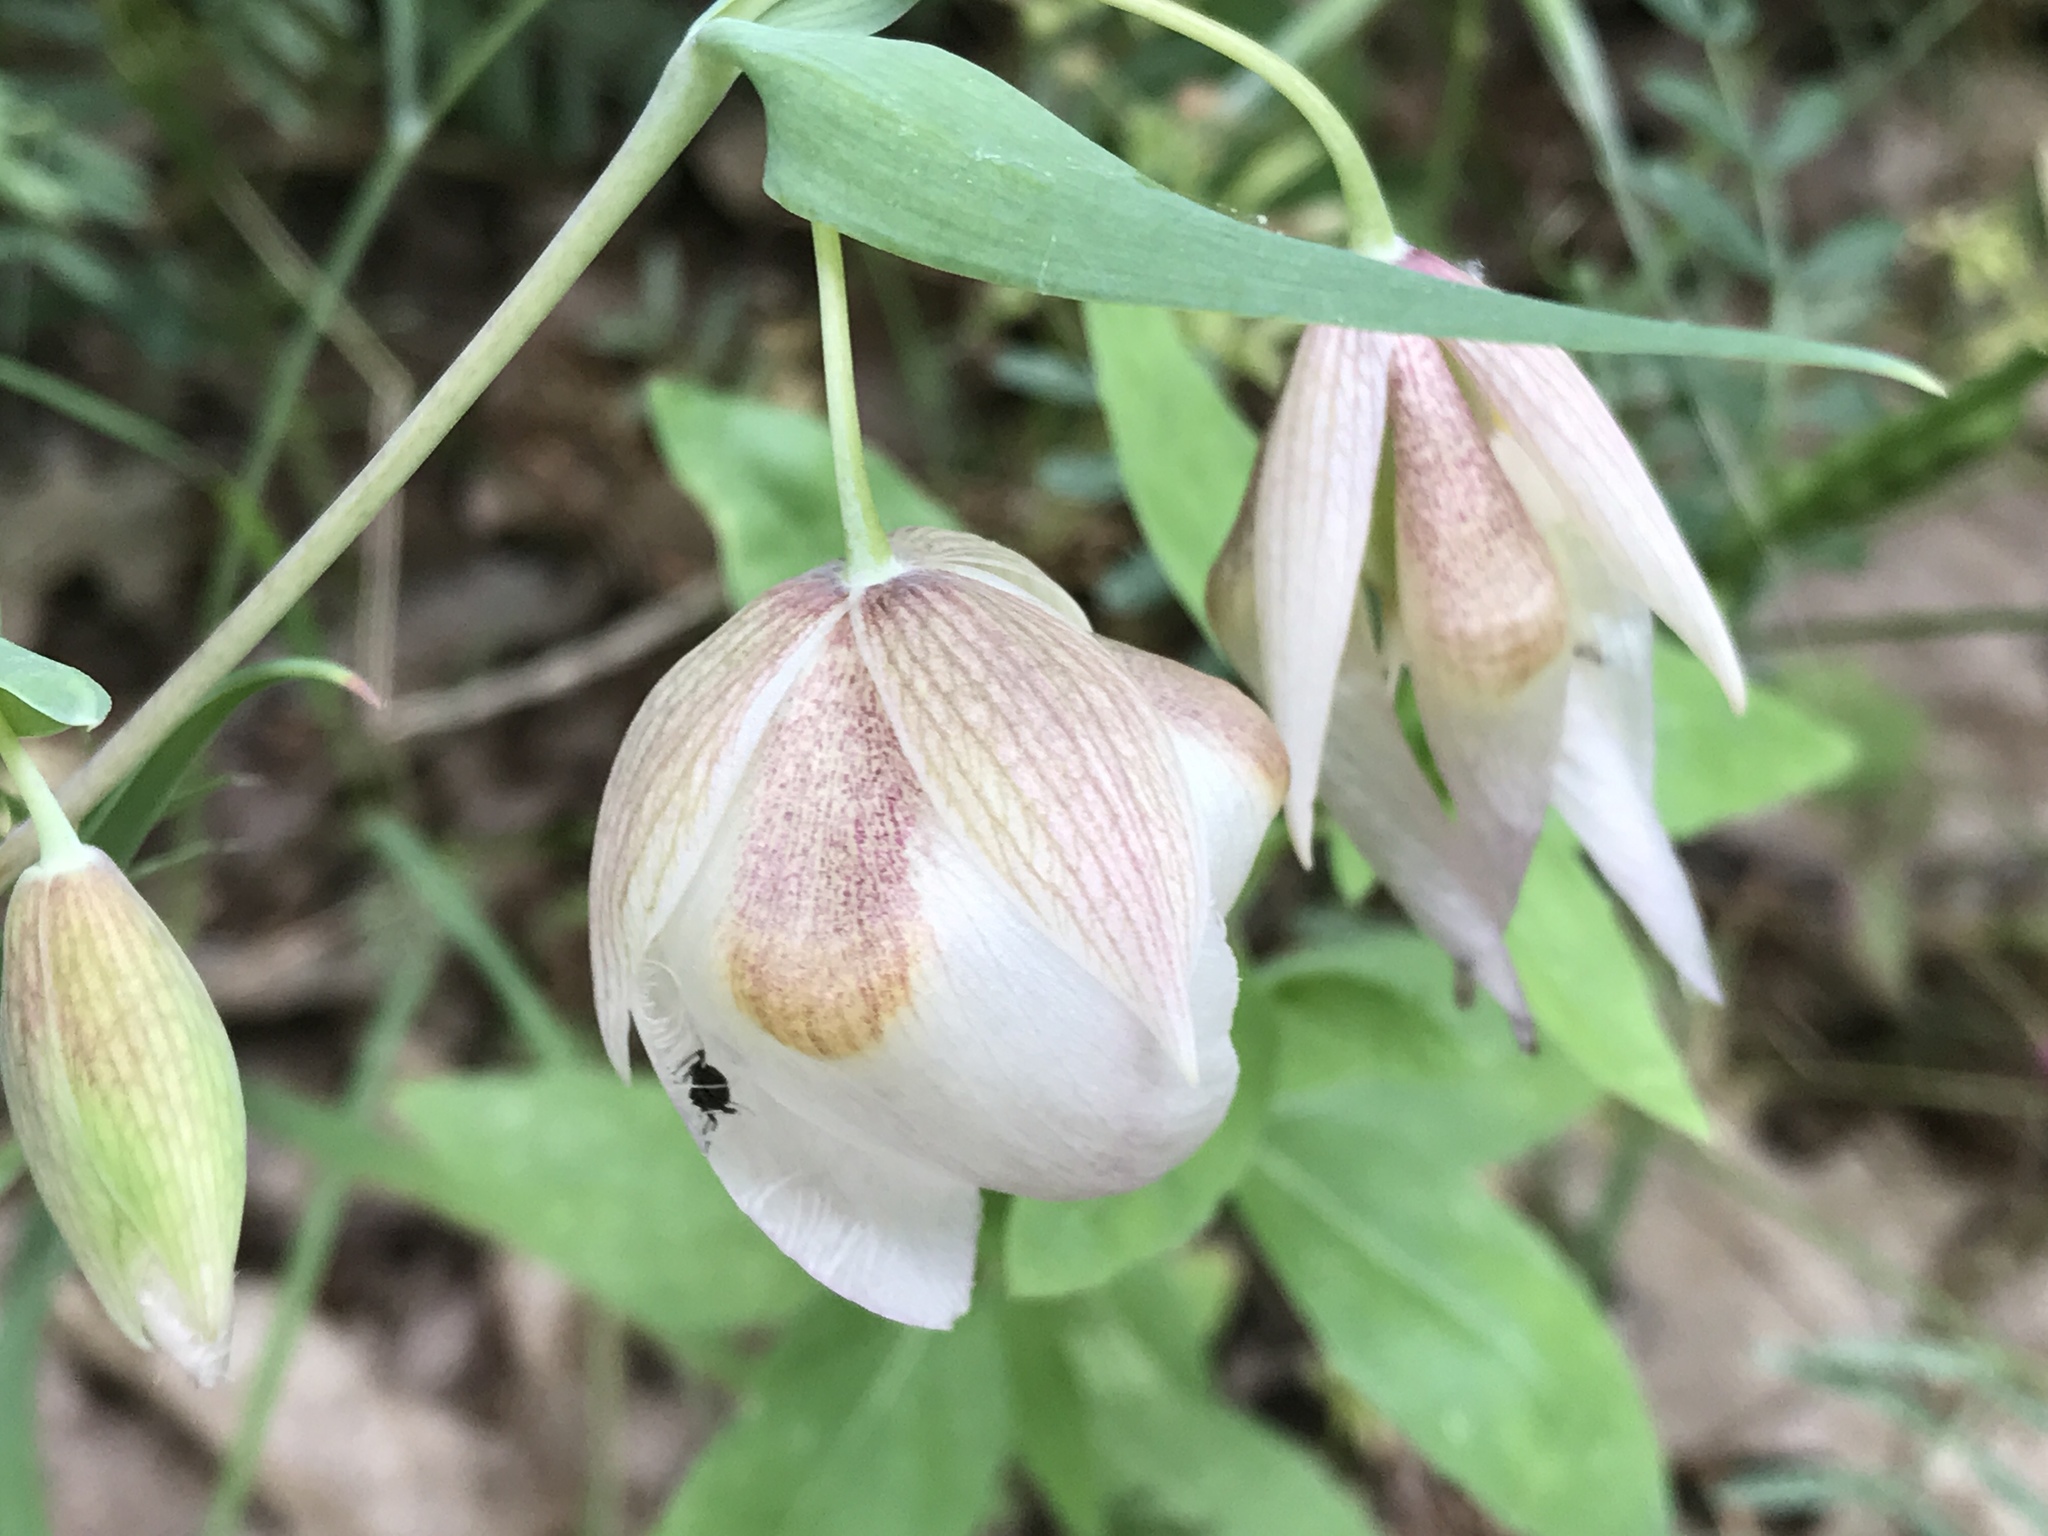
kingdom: Plantae
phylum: Tracheophyta
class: Liliopsida
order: Liliales
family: Liliaceae
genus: Calochortus
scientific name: Calochortus albus
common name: Fairy-lantern
